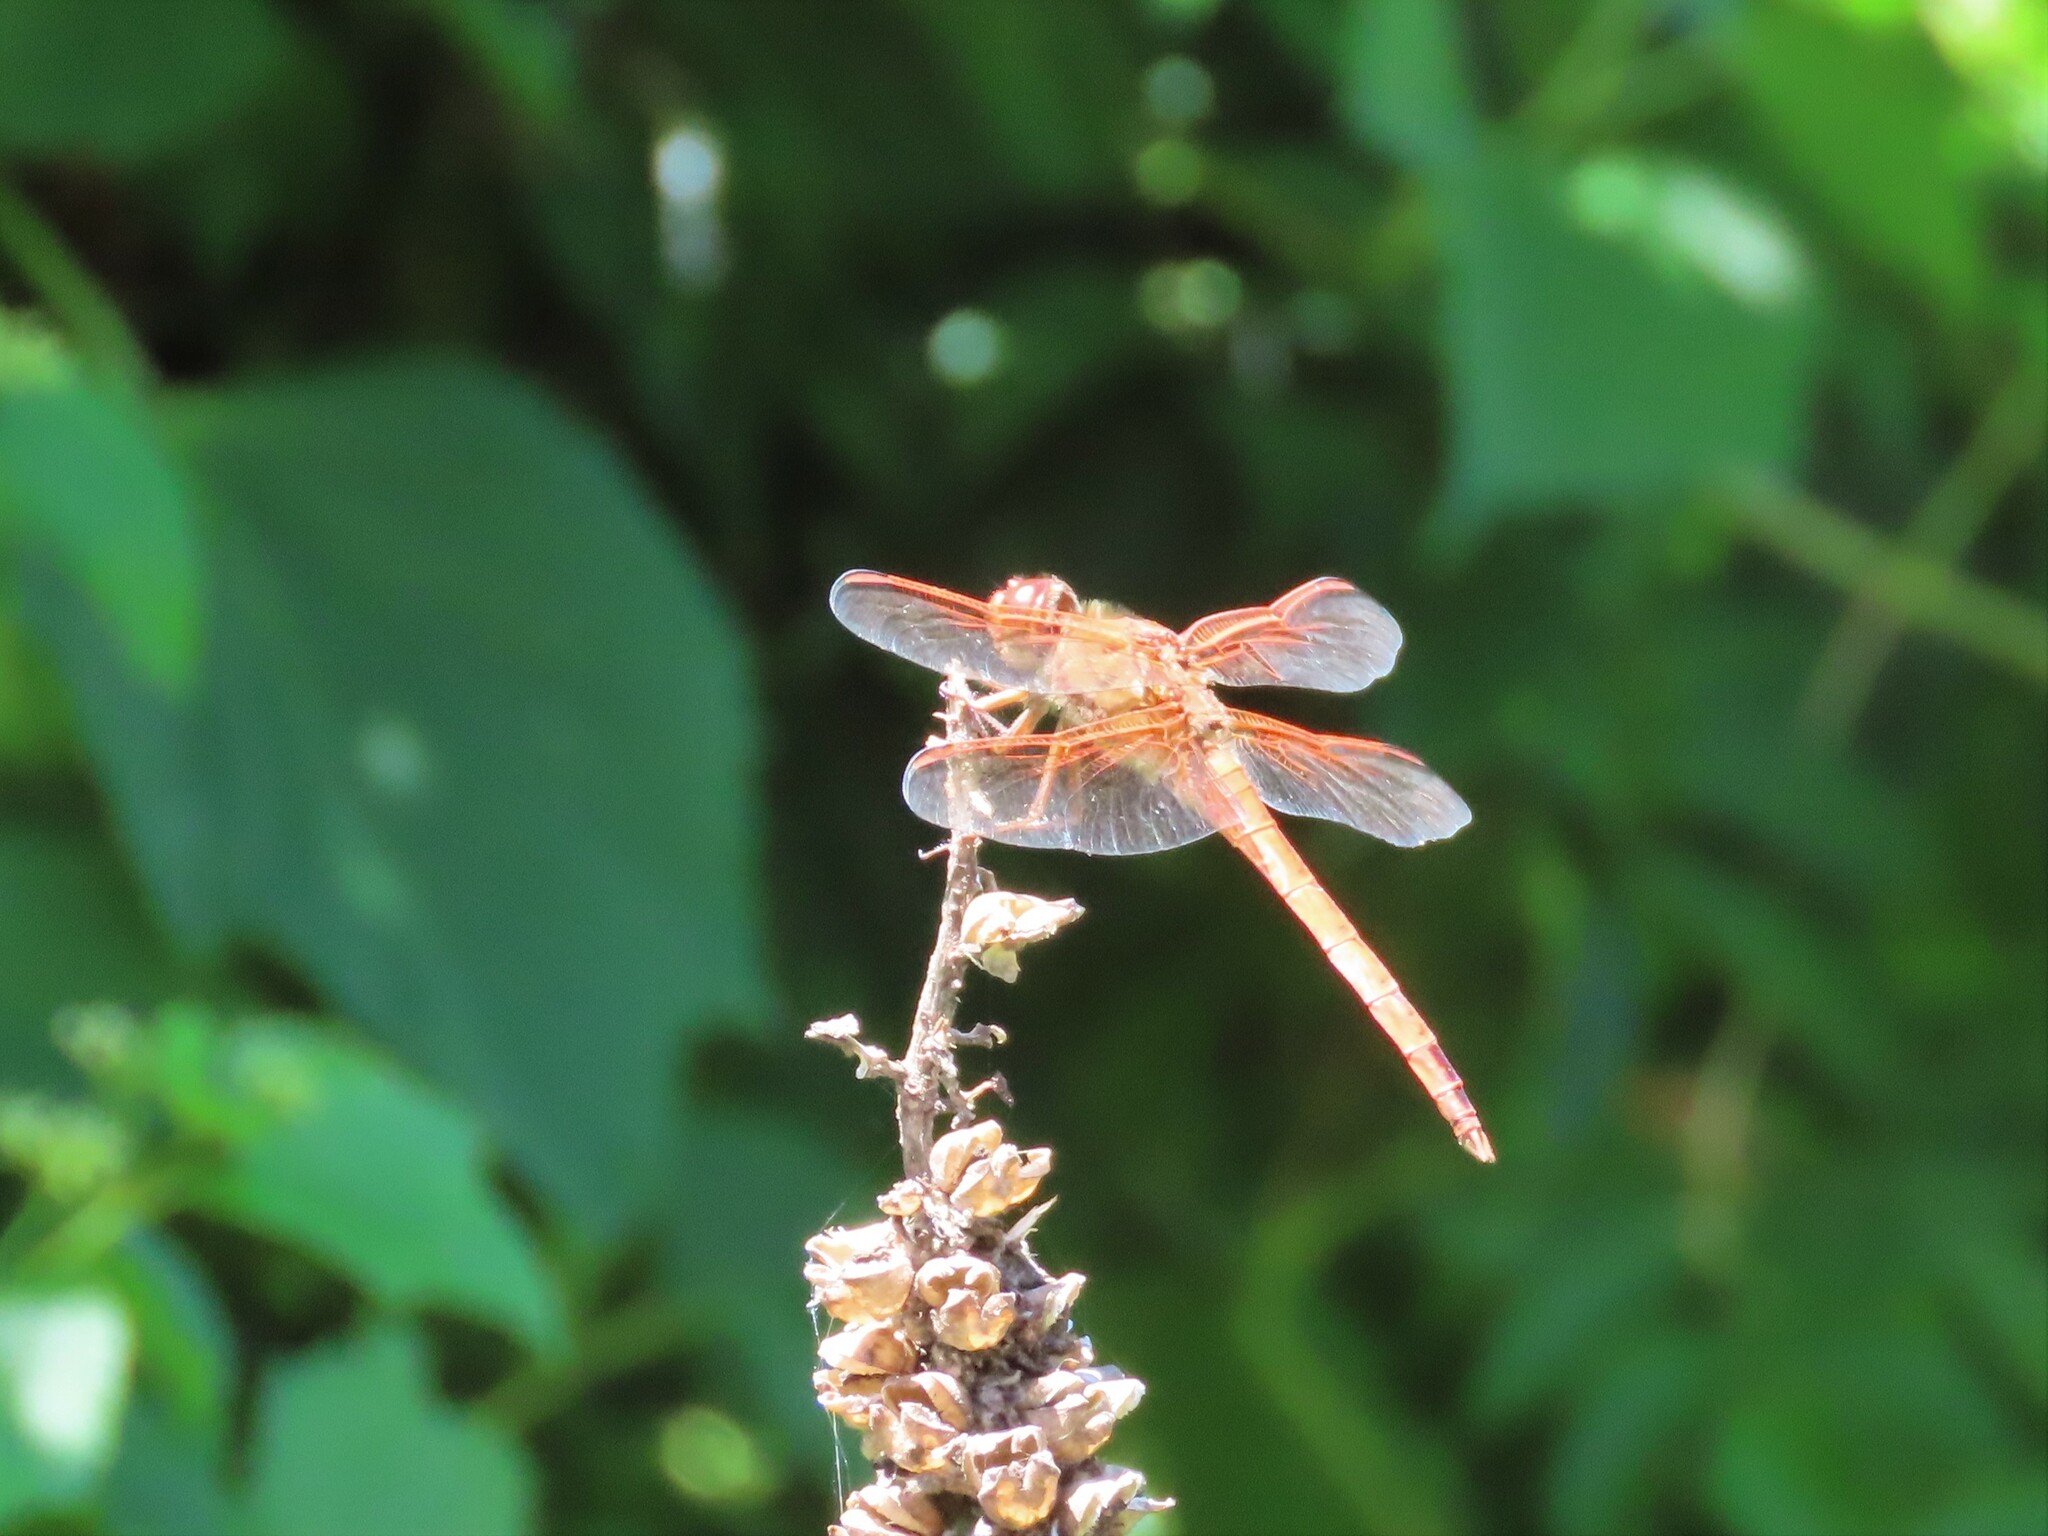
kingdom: Animalia
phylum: Arthropoda
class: Insecta
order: Odonata
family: Libellulidae
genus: Libellula
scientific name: Libellula needhami
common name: Needham's skimmer
